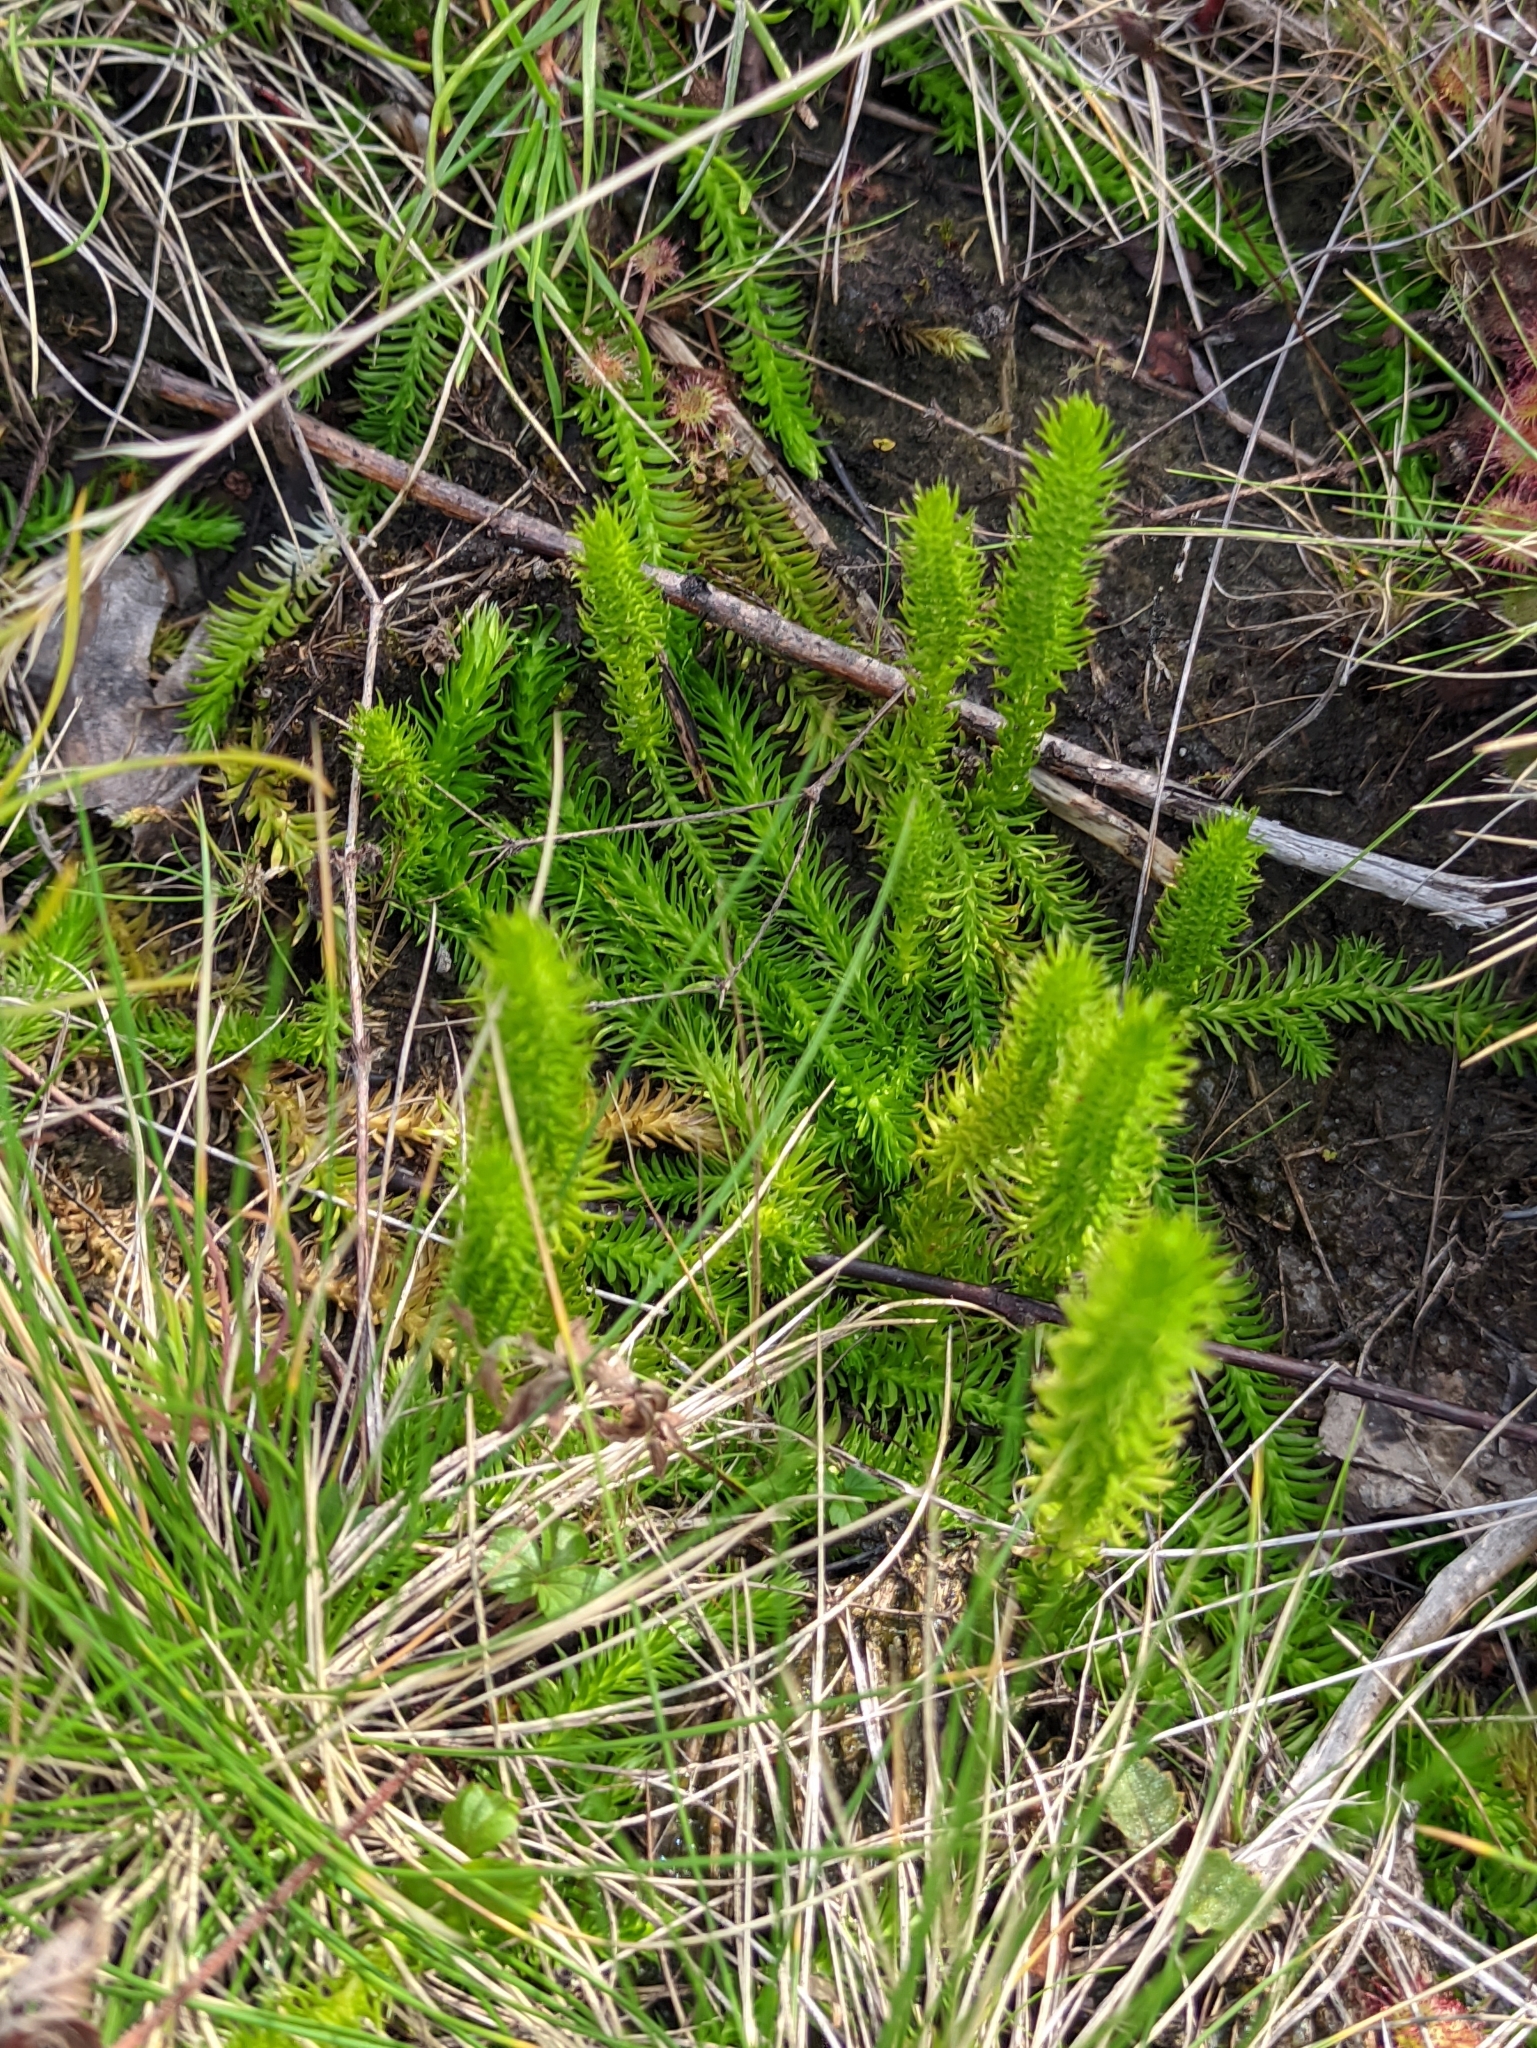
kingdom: Plantae
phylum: Tracheophyta
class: Lycopodiopsida
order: Lycopodiales
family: Lycopodiaceae
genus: Lycopodiella
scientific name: Lycopodiella inundata
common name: Marsh clubmoss
